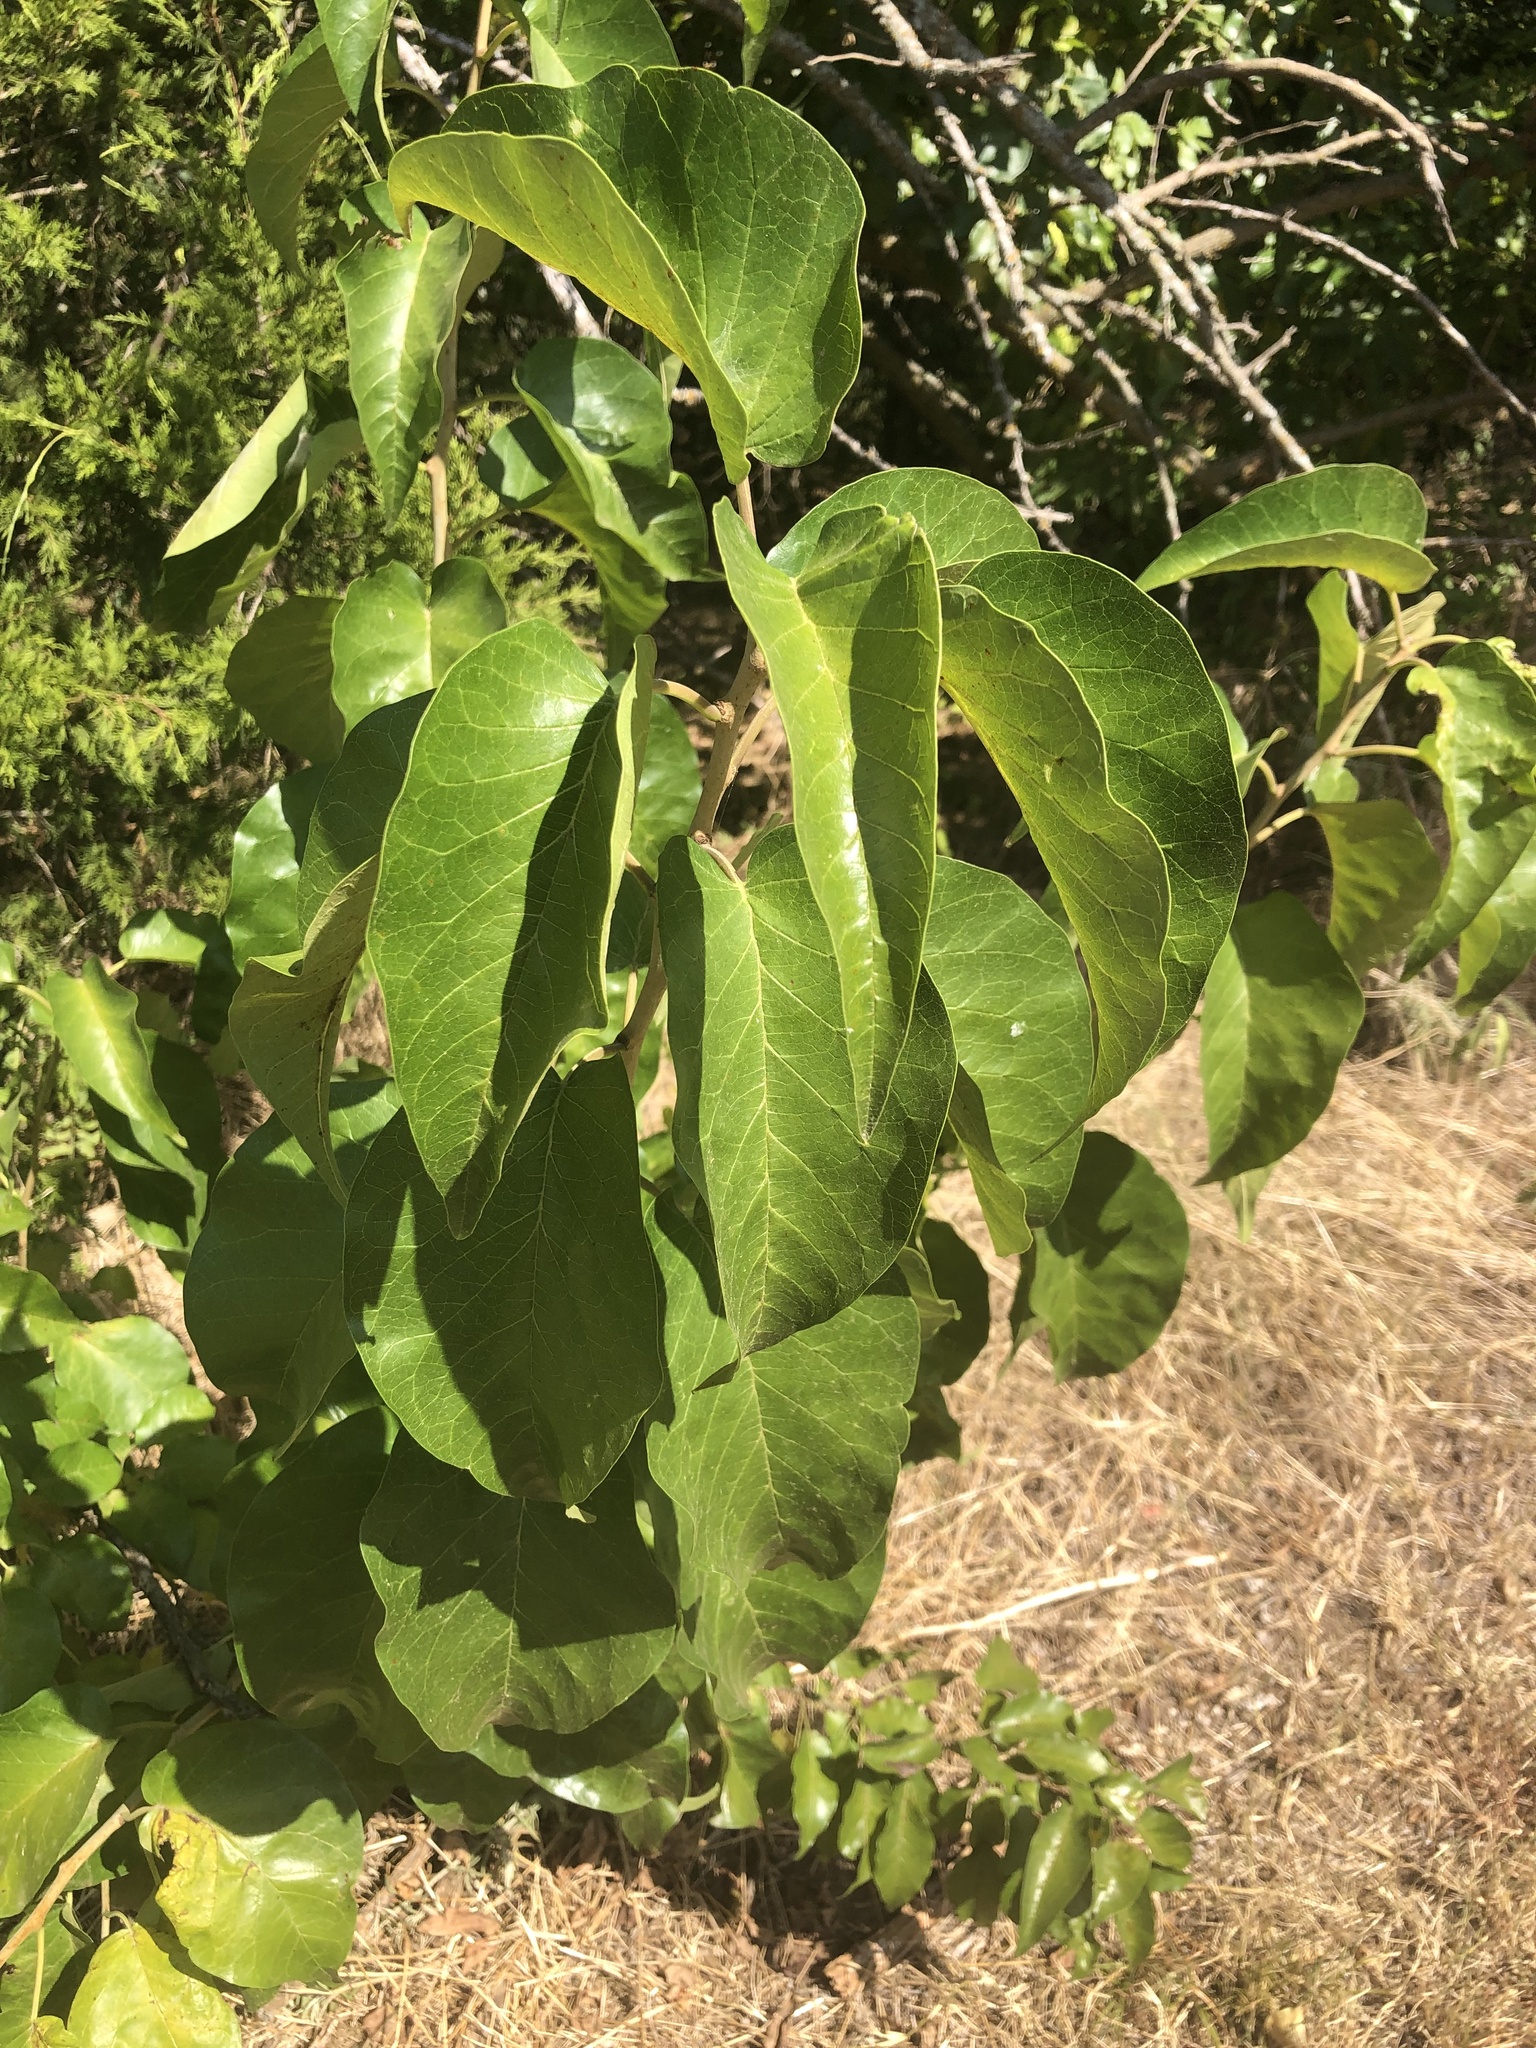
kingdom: Plantae
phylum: Tracheophyta
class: Magnoliopsida
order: Rosales
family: Moraceae
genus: Maclura
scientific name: Maclura pomifera
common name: Osage-orange
